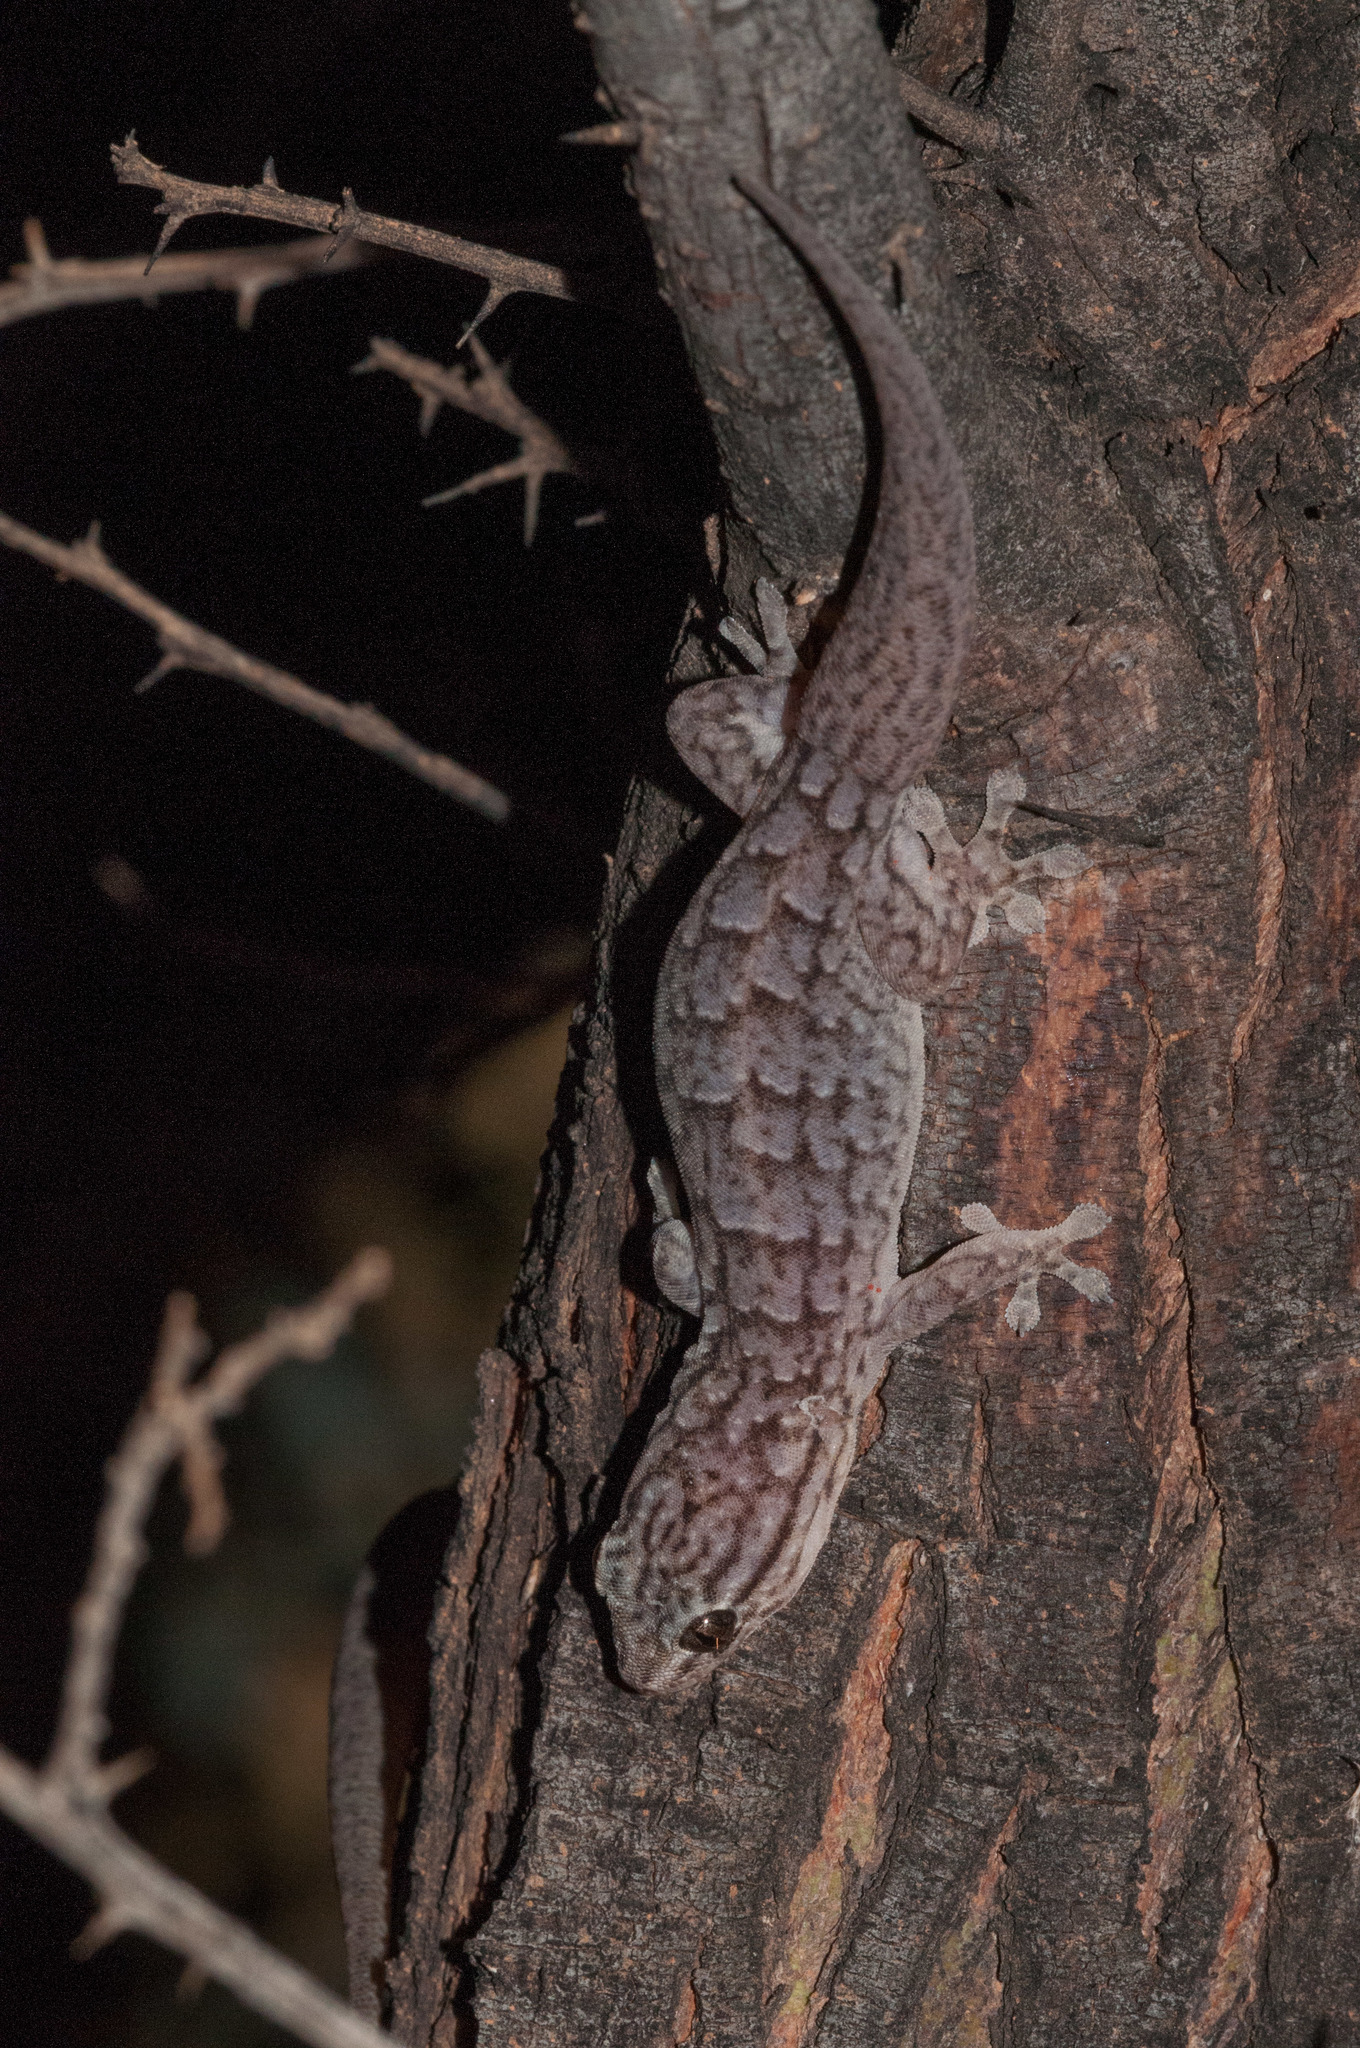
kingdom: Animalia
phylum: Chordata
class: Squamata
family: Gekkonidae
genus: Gehyra
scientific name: Gehyra versicolor
